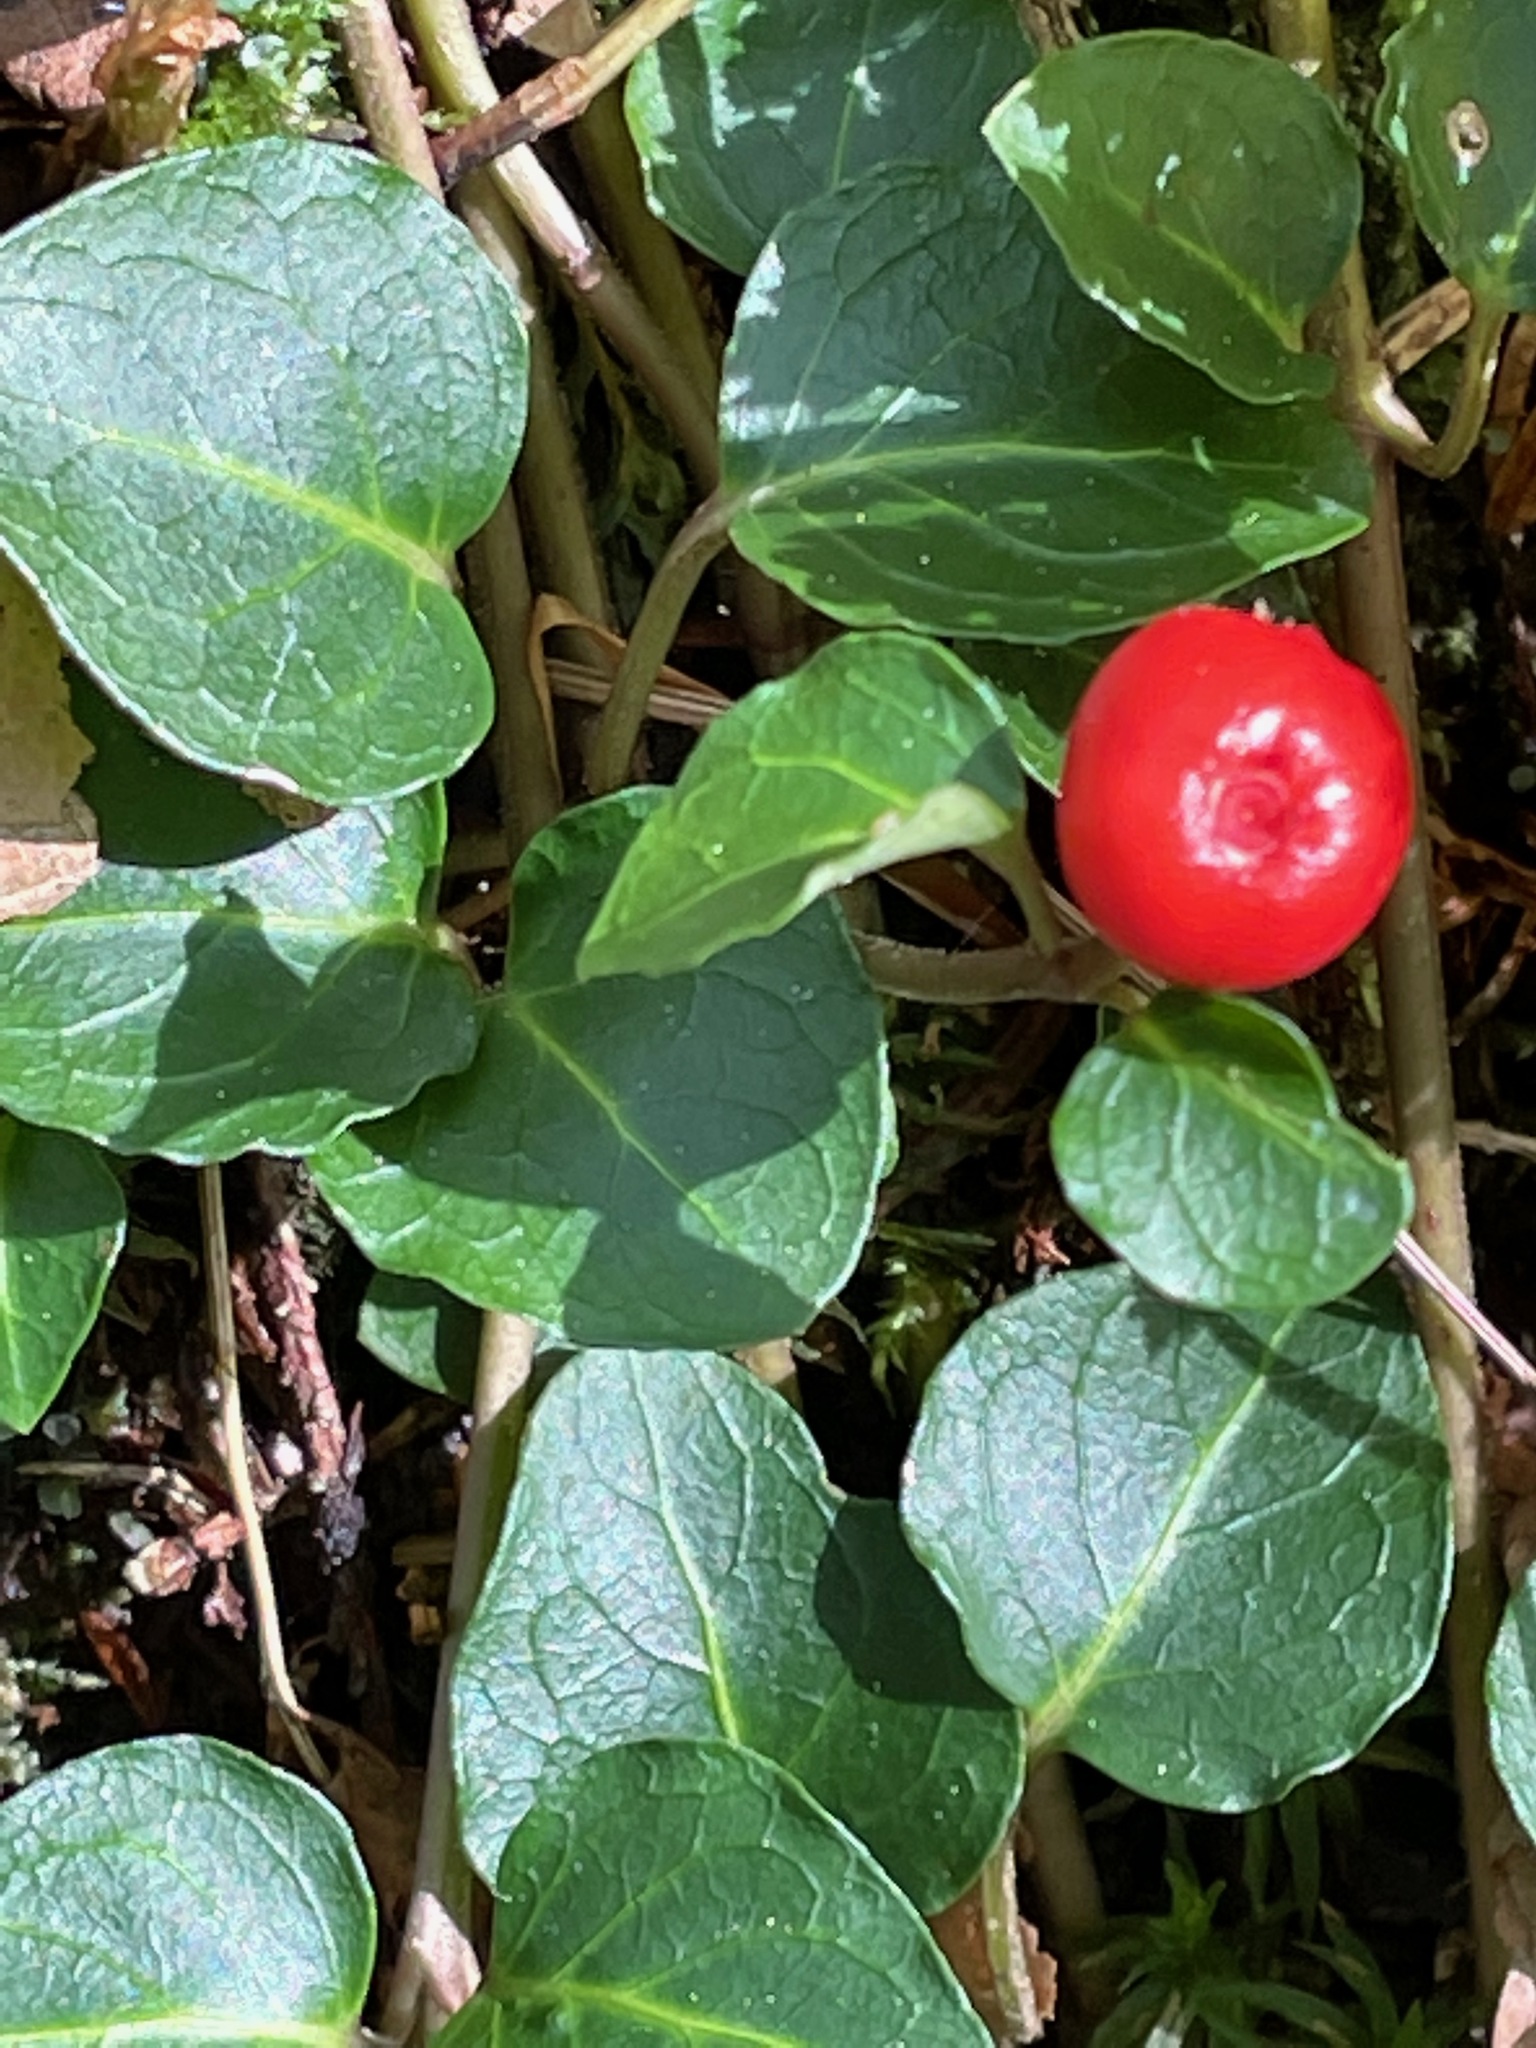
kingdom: Plantae
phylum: Tracheophyta
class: Magnoliopsida
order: Gentianales
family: Rubiaceae
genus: Mitchella
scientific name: Mitchella repens
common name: Partridge-berry
